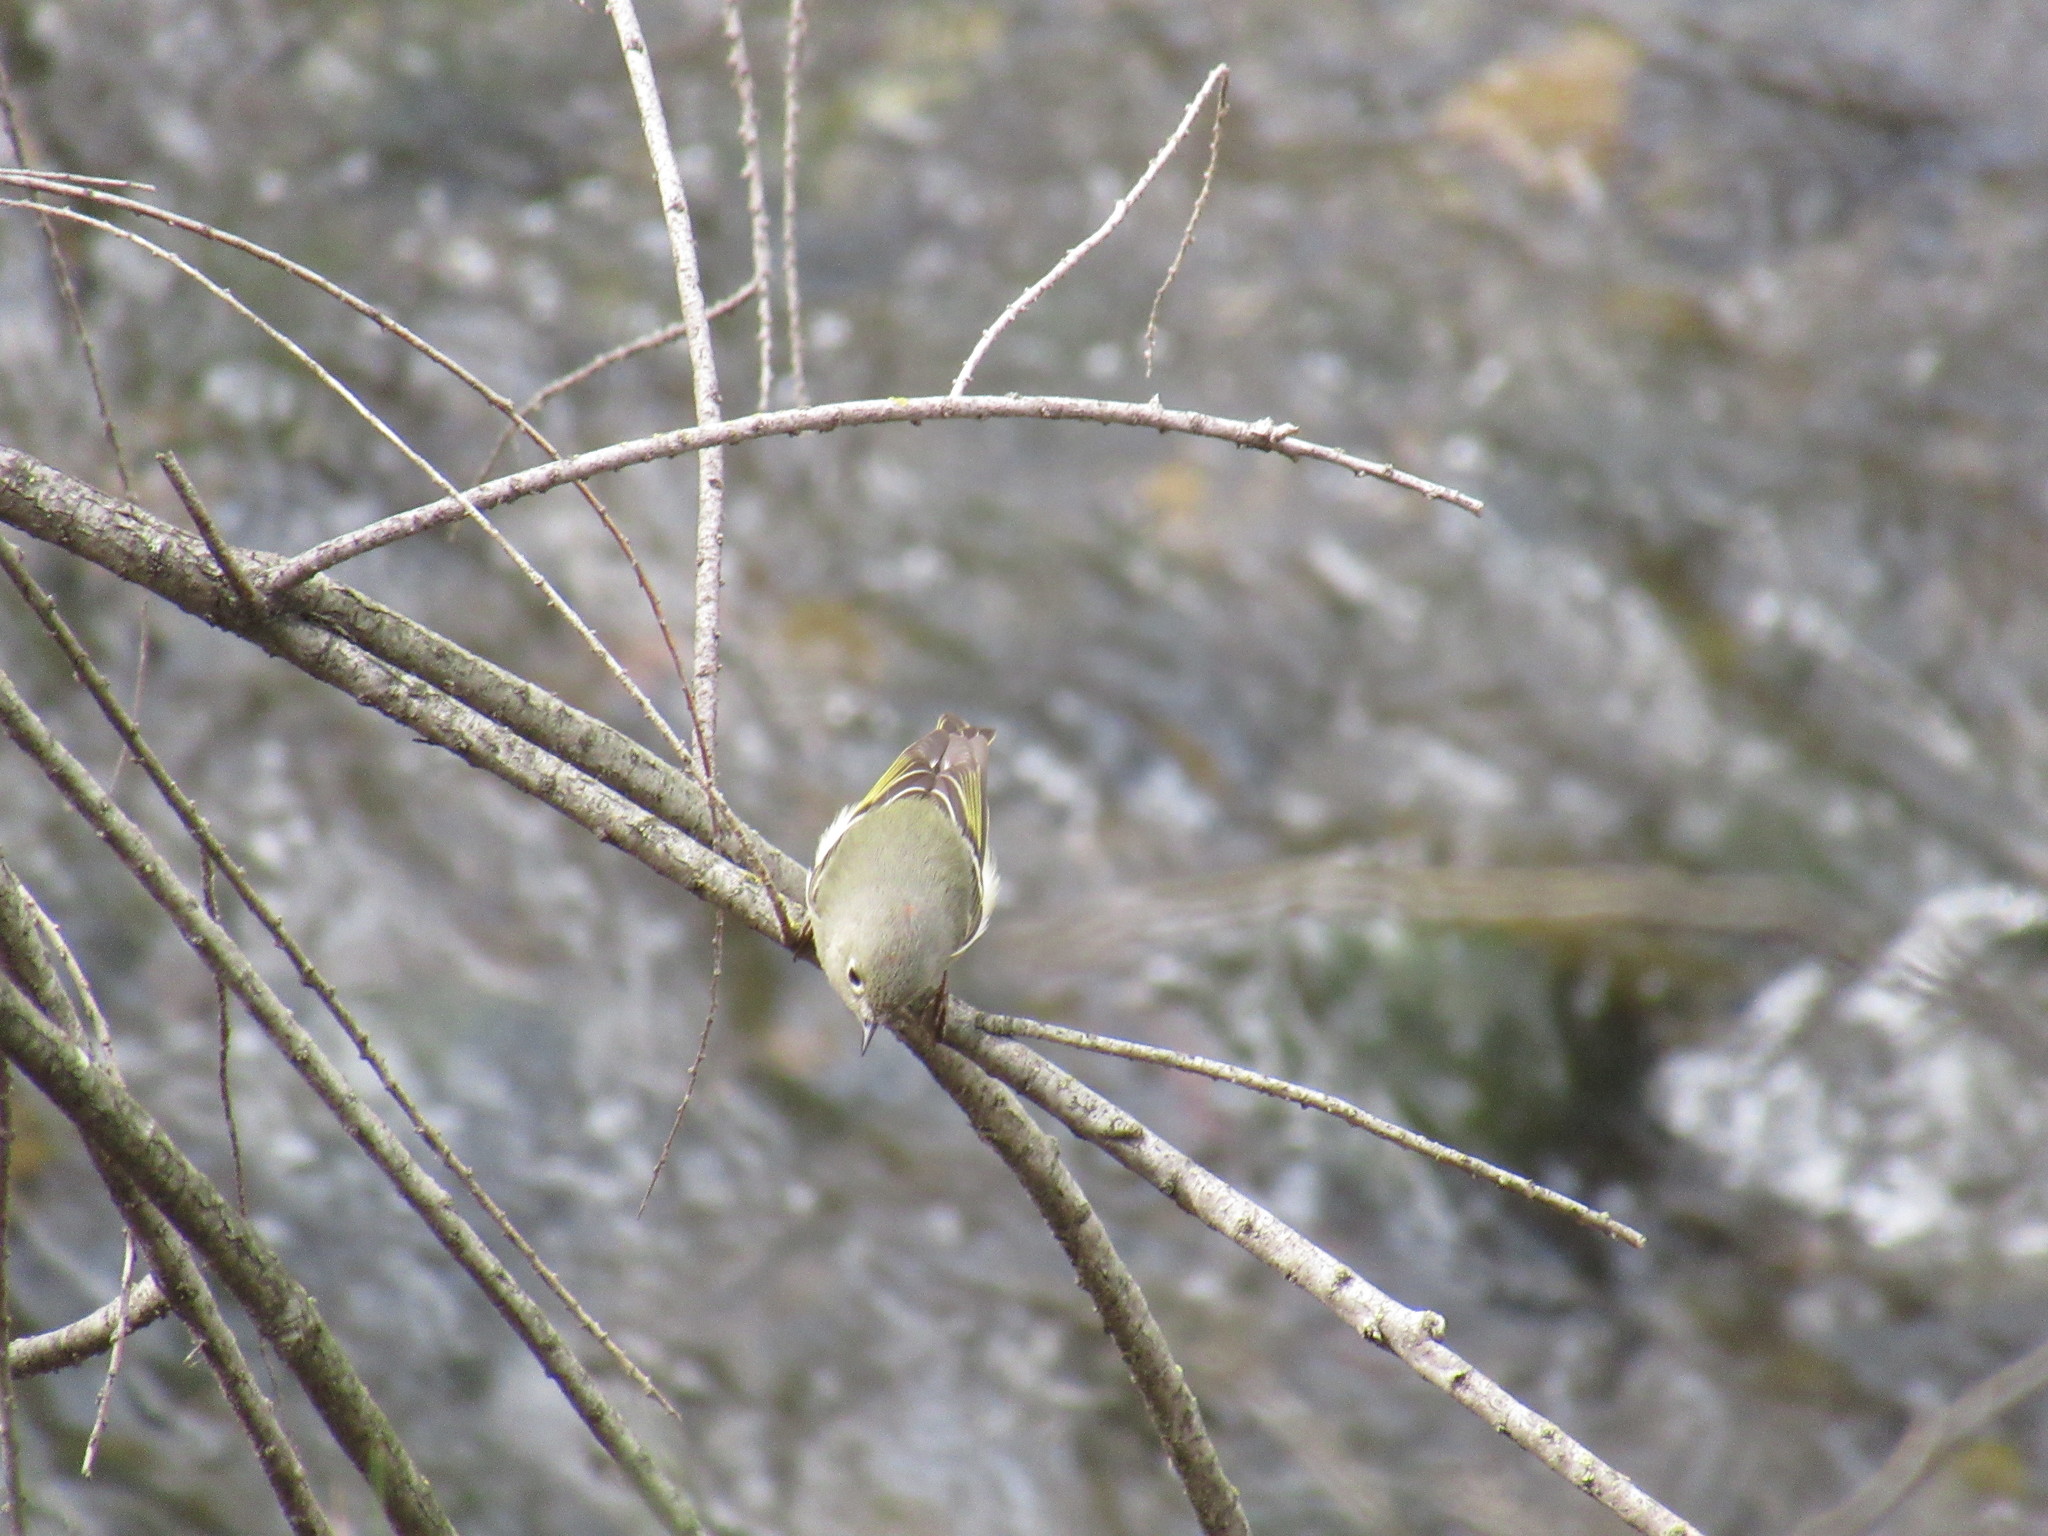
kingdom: Animalia
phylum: Chordata
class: Aves
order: Passeriformes
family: Regulidae
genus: Regulus
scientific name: Regulus calendula
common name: Ruby-crowned kinglet
